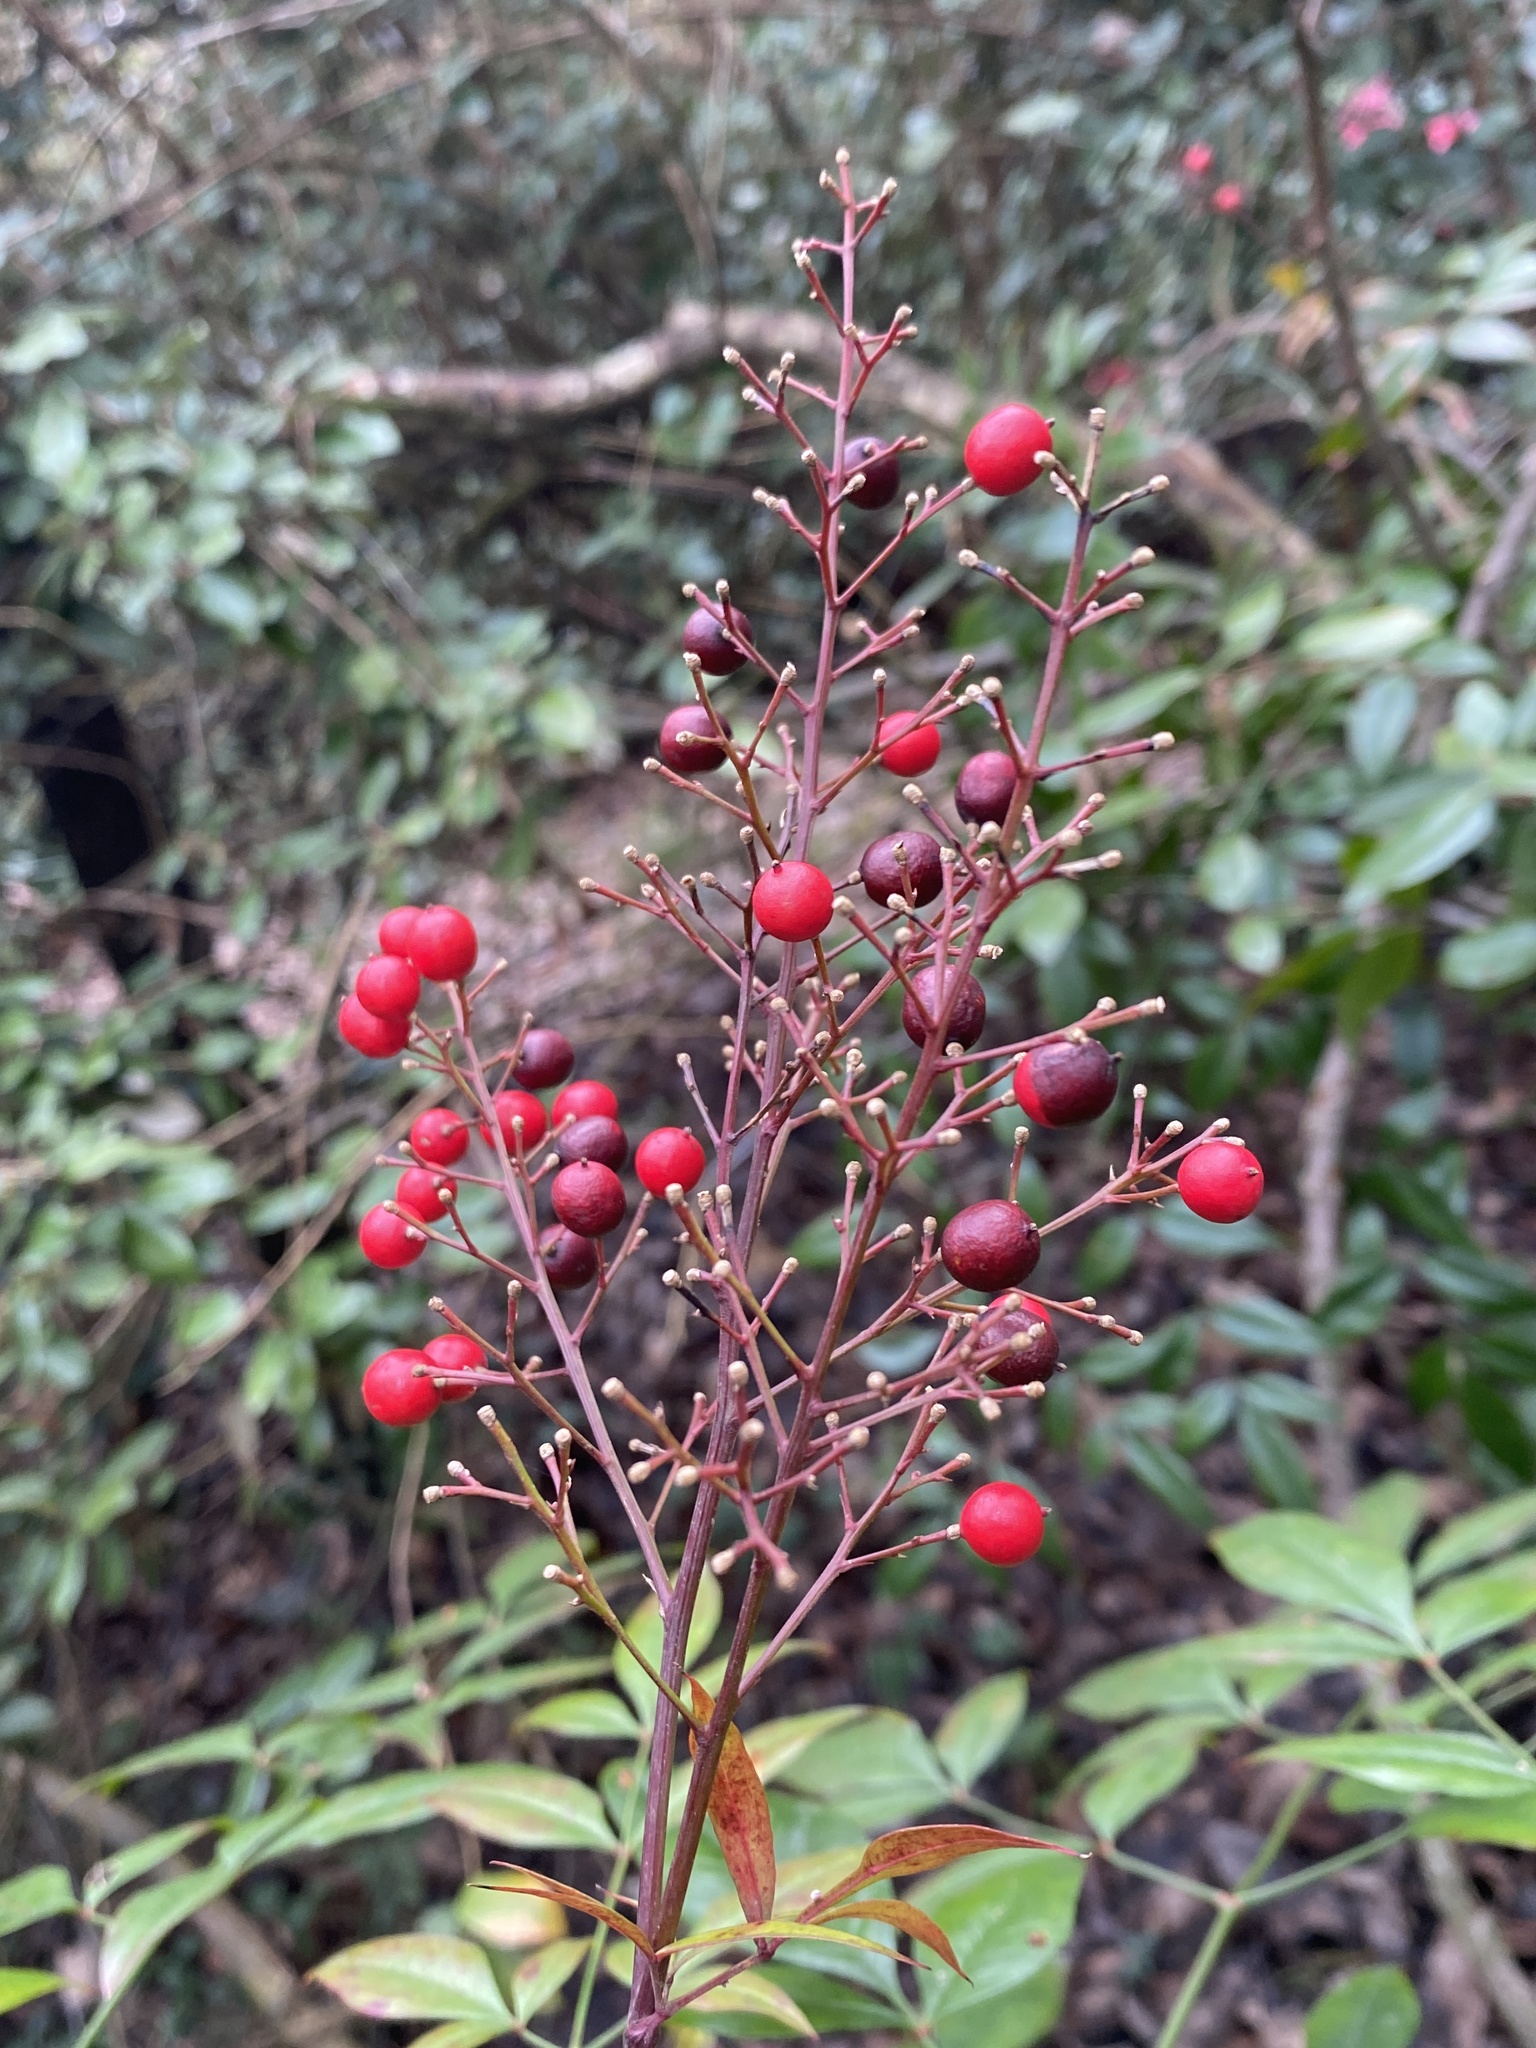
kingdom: Plantae
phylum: Tracheophyta
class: Magnoliopsida
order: Ranunculales
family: Berberidaceae
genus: Nandina
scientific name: Nandina domestica
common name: Sacred bamboo
